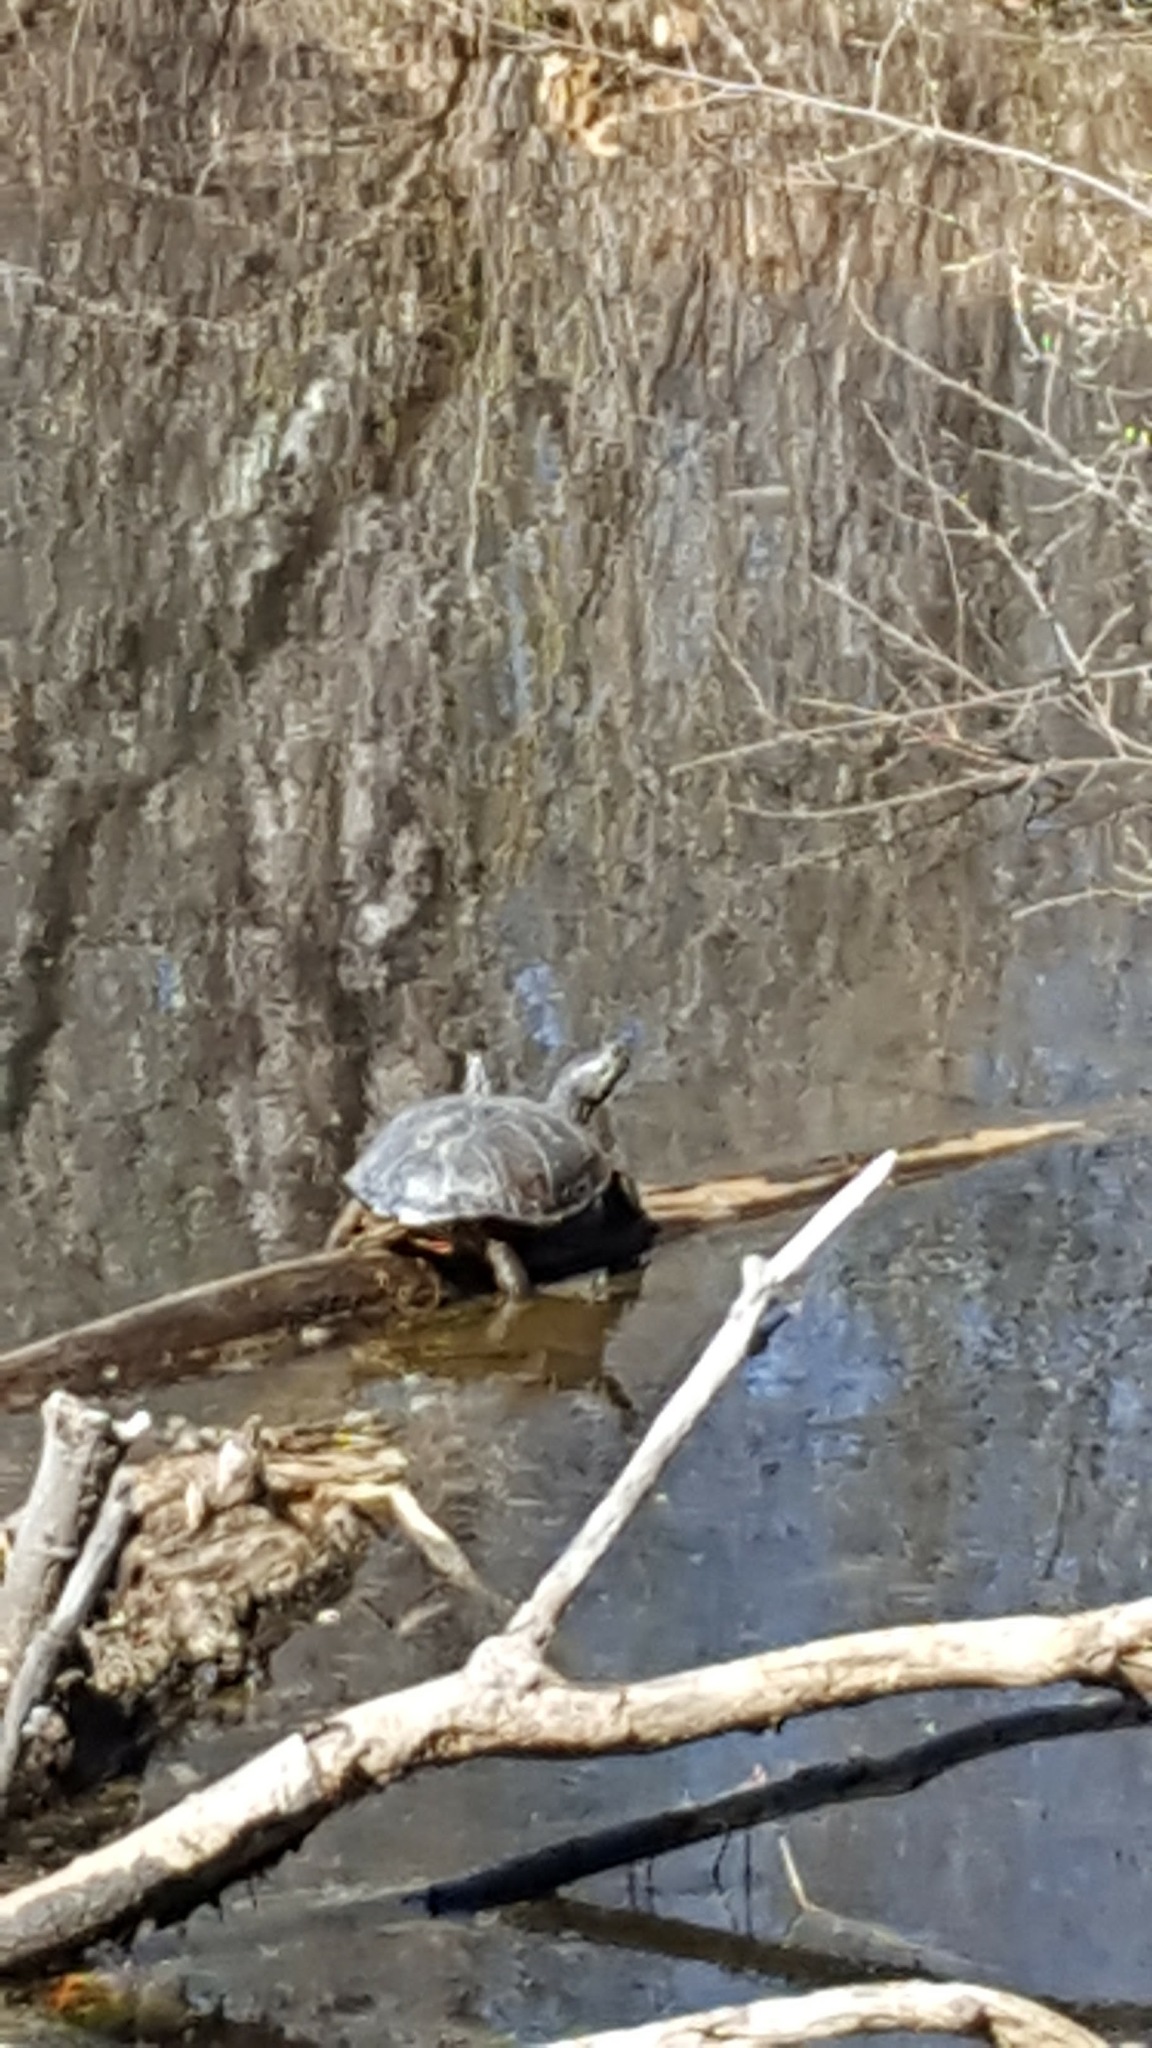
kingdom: Animalia
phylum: Chordata
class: Testudines
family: Emydidae
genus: Chrysemys
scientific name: Chrysemys picta
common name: Painted turtle
